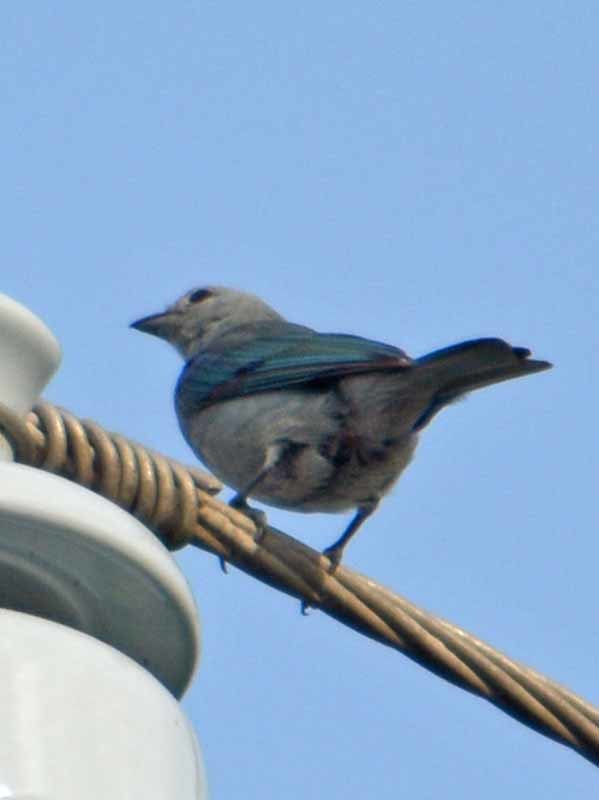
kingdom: Animalia
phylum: Chordata
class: Aves
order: Passeriformes
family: Thraupidae
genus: Thraupis
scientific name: Thraupis episcopus
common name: Blue-grey tanager
